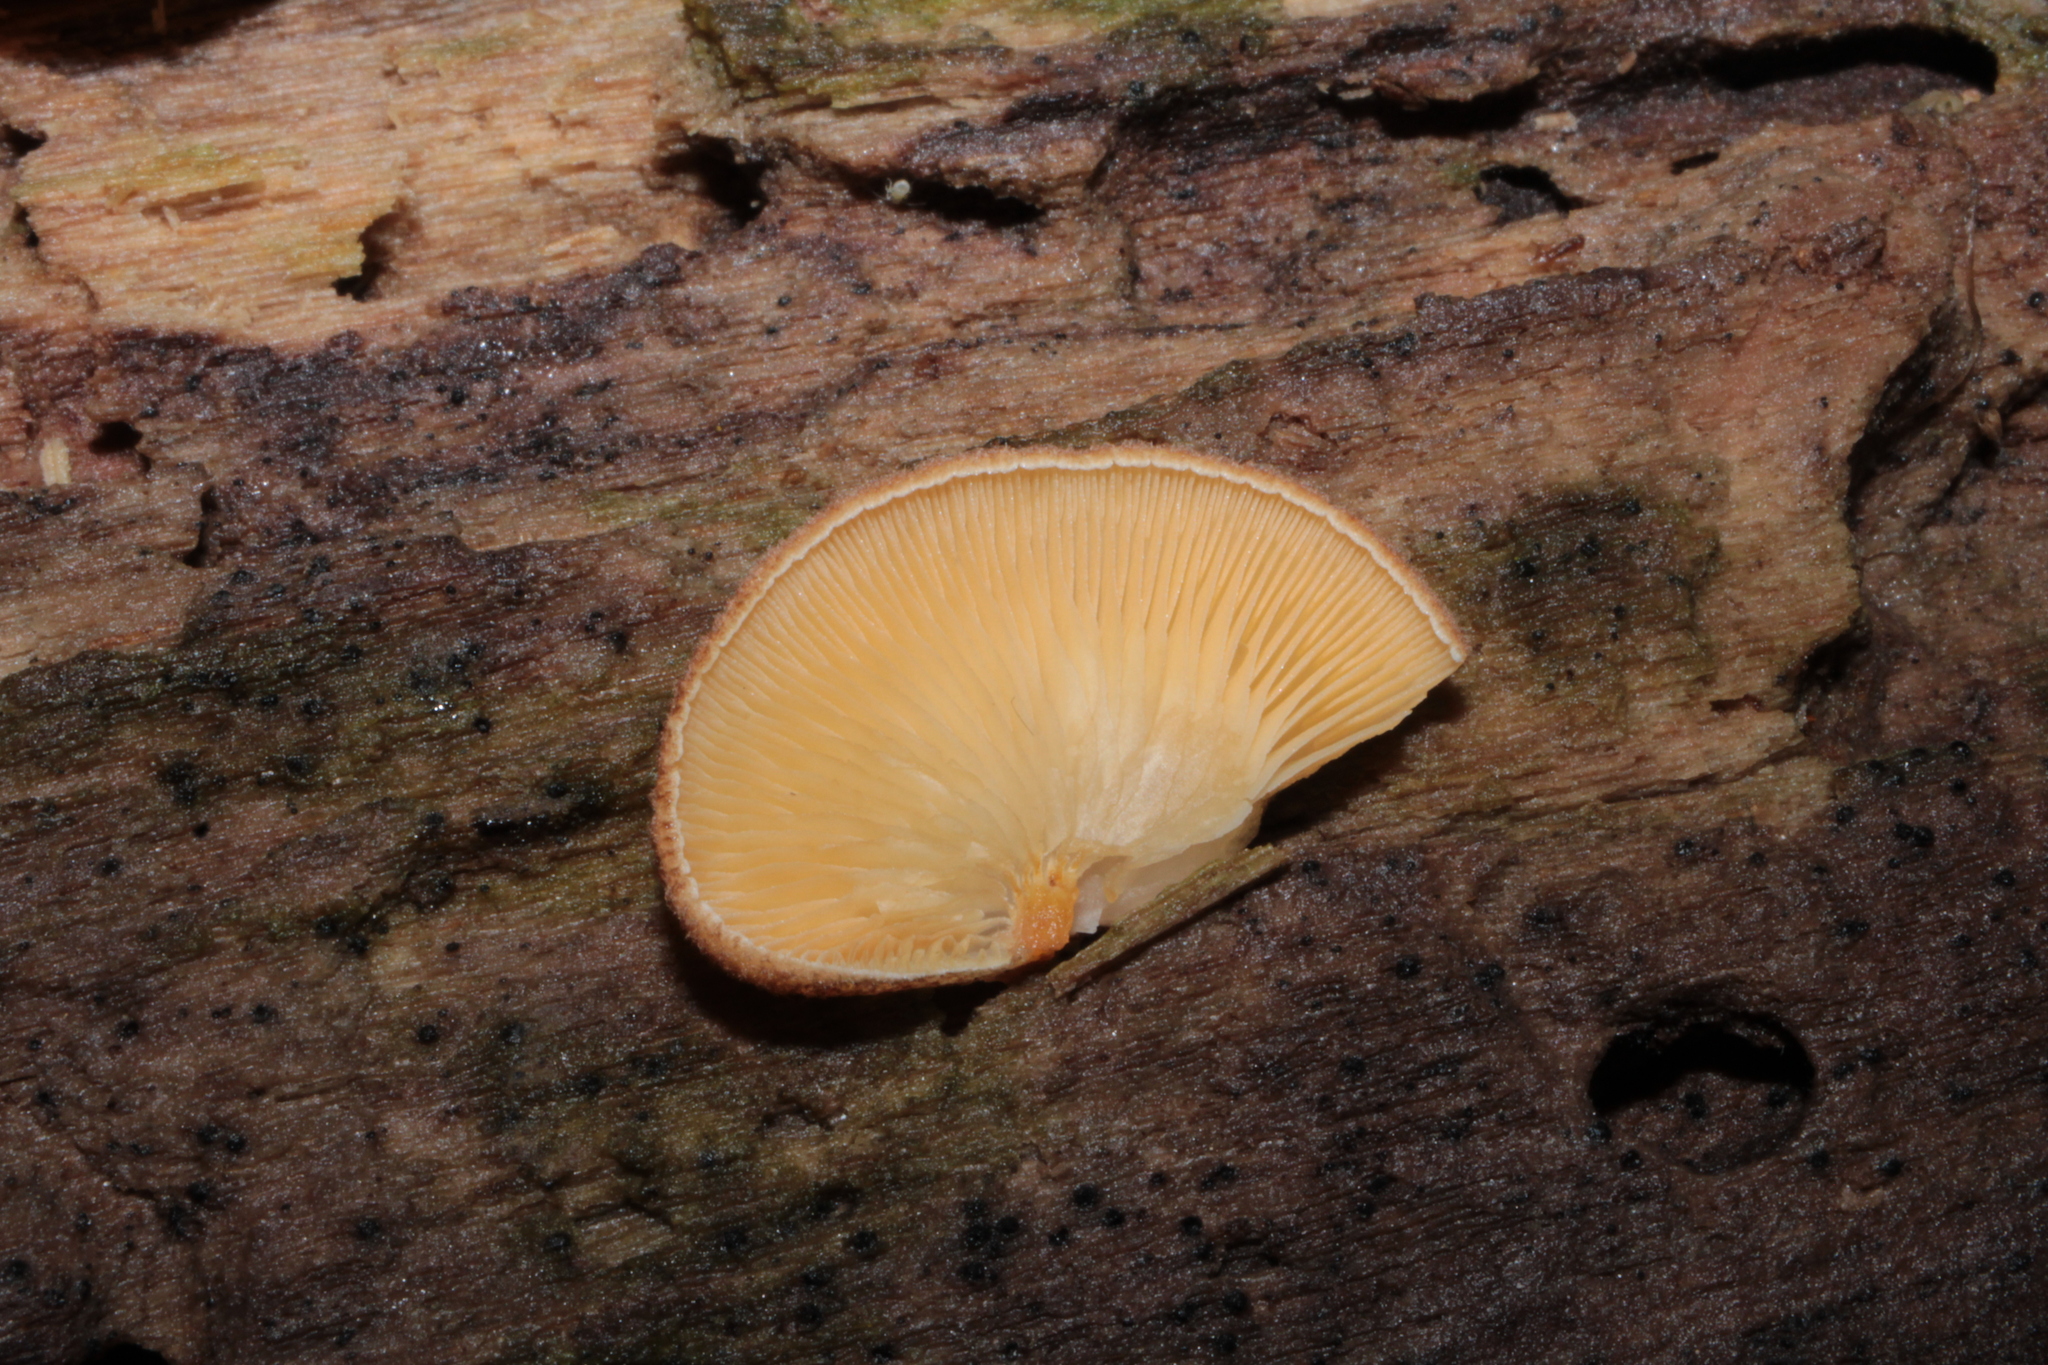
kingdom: Fungi
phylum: Basidiomycota
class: Agaricomycetes
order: Agaricales
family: Crepidotaceae
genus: Crepidotus
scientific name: Crepidotus crocophyllus
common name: Saffron oysterling
